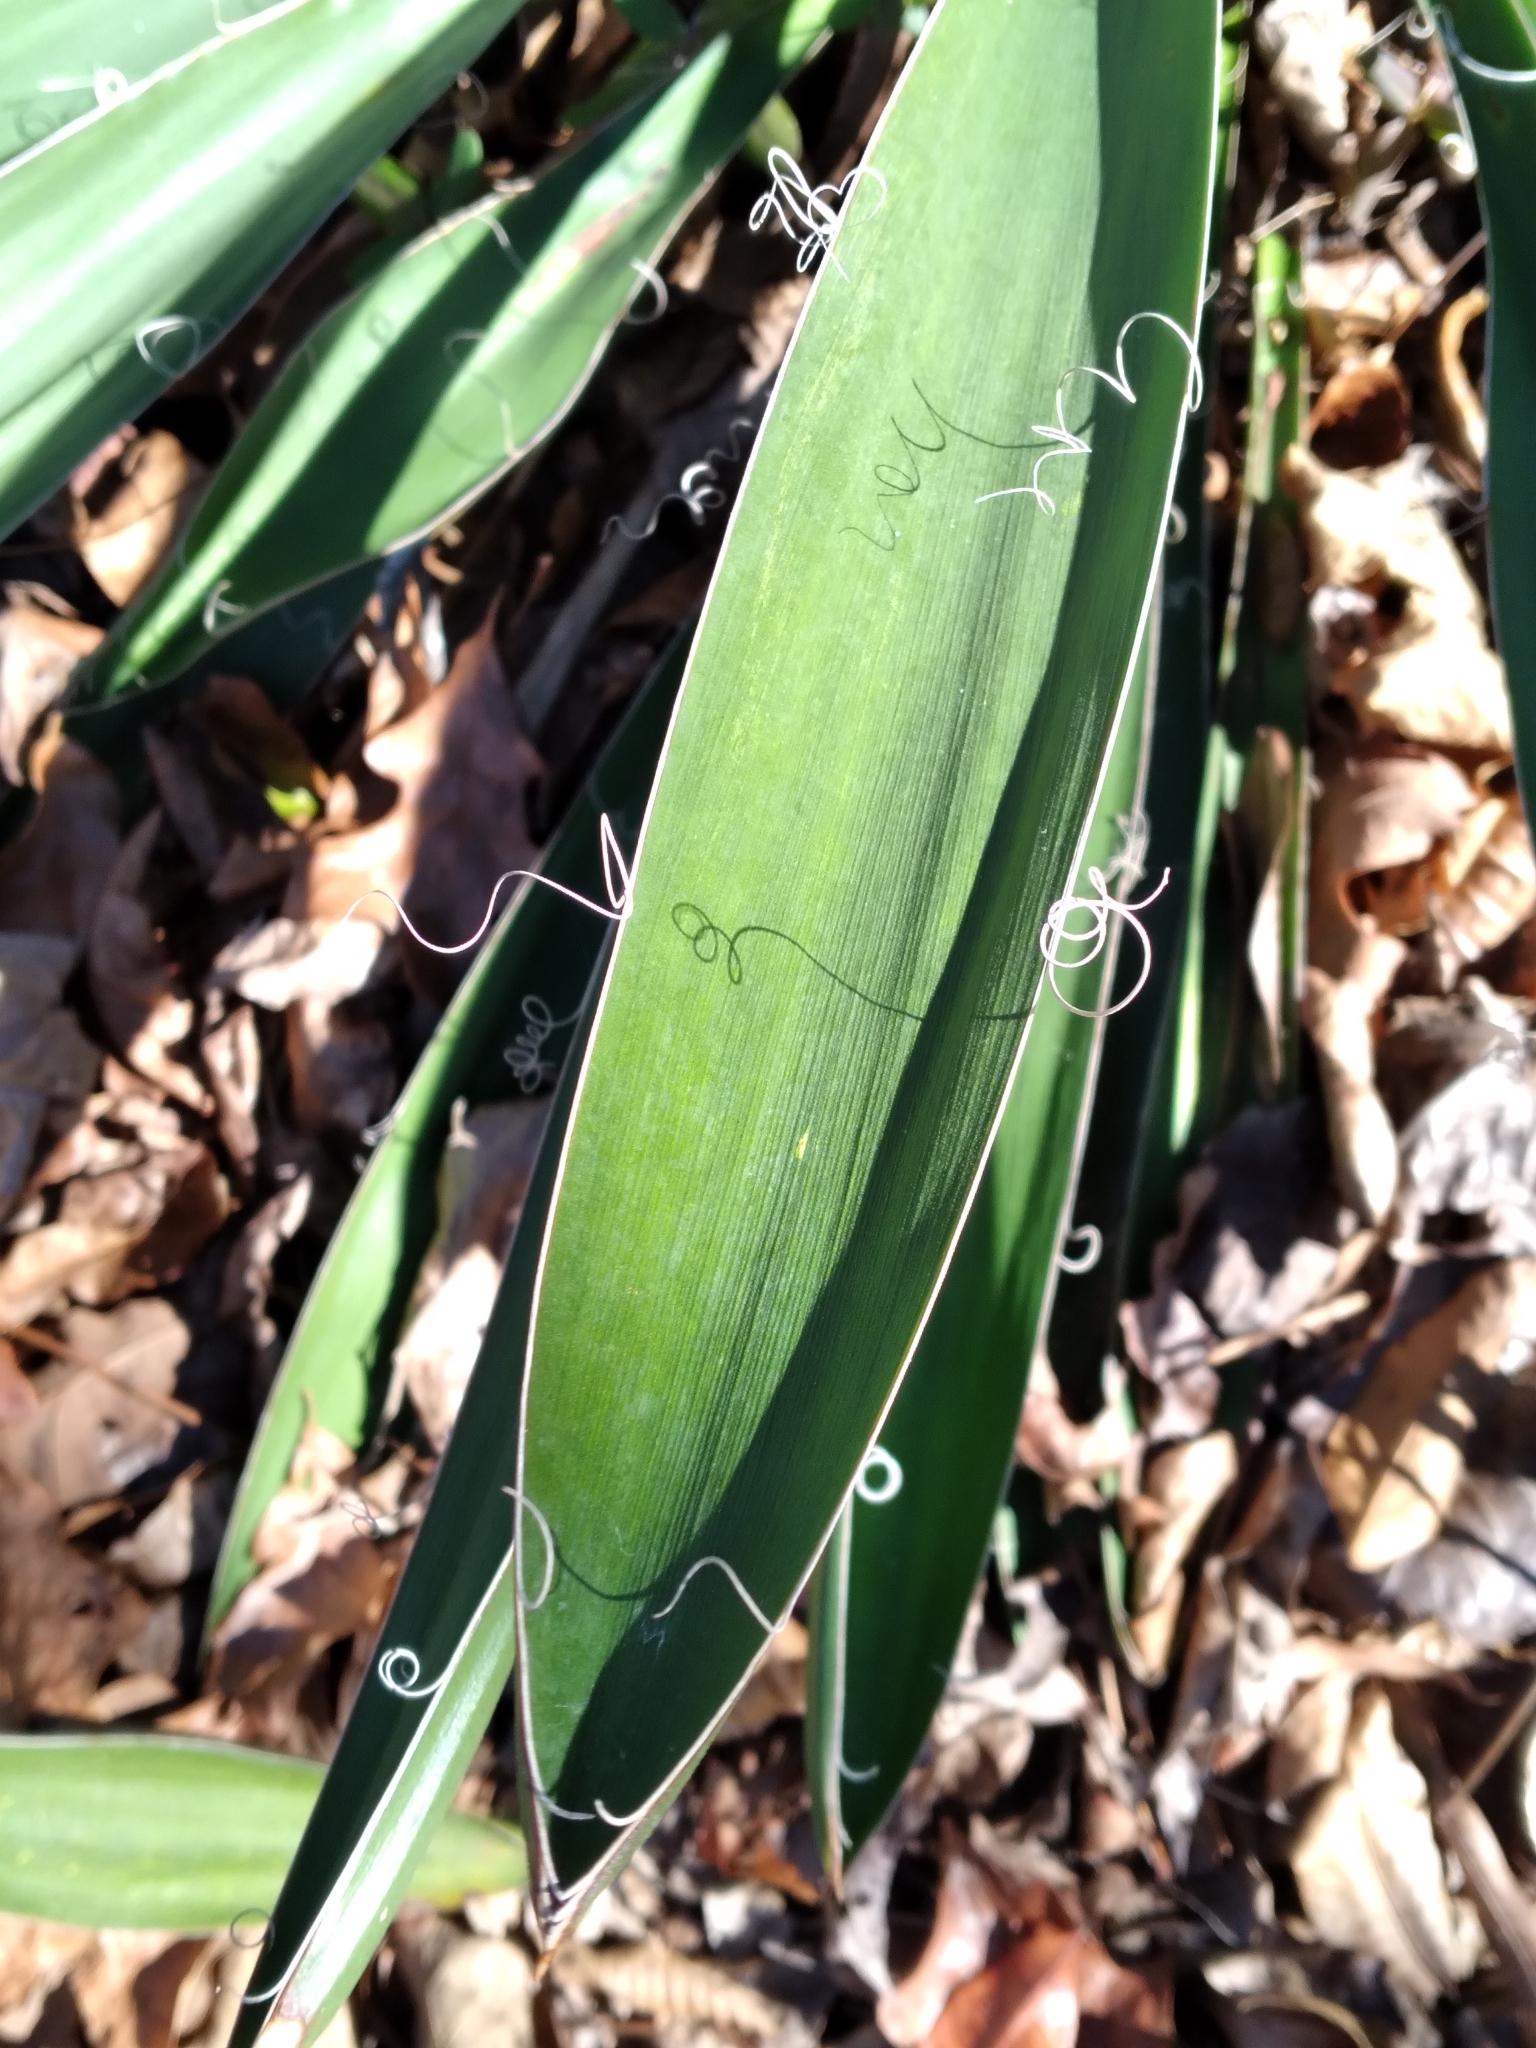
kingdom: Plantae
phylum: Tracheophyta
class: Liliopsida
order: Asparagales
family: Asparagaceae
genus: Yucca
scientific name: Yucca filamentosa
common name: Adam's-needle
